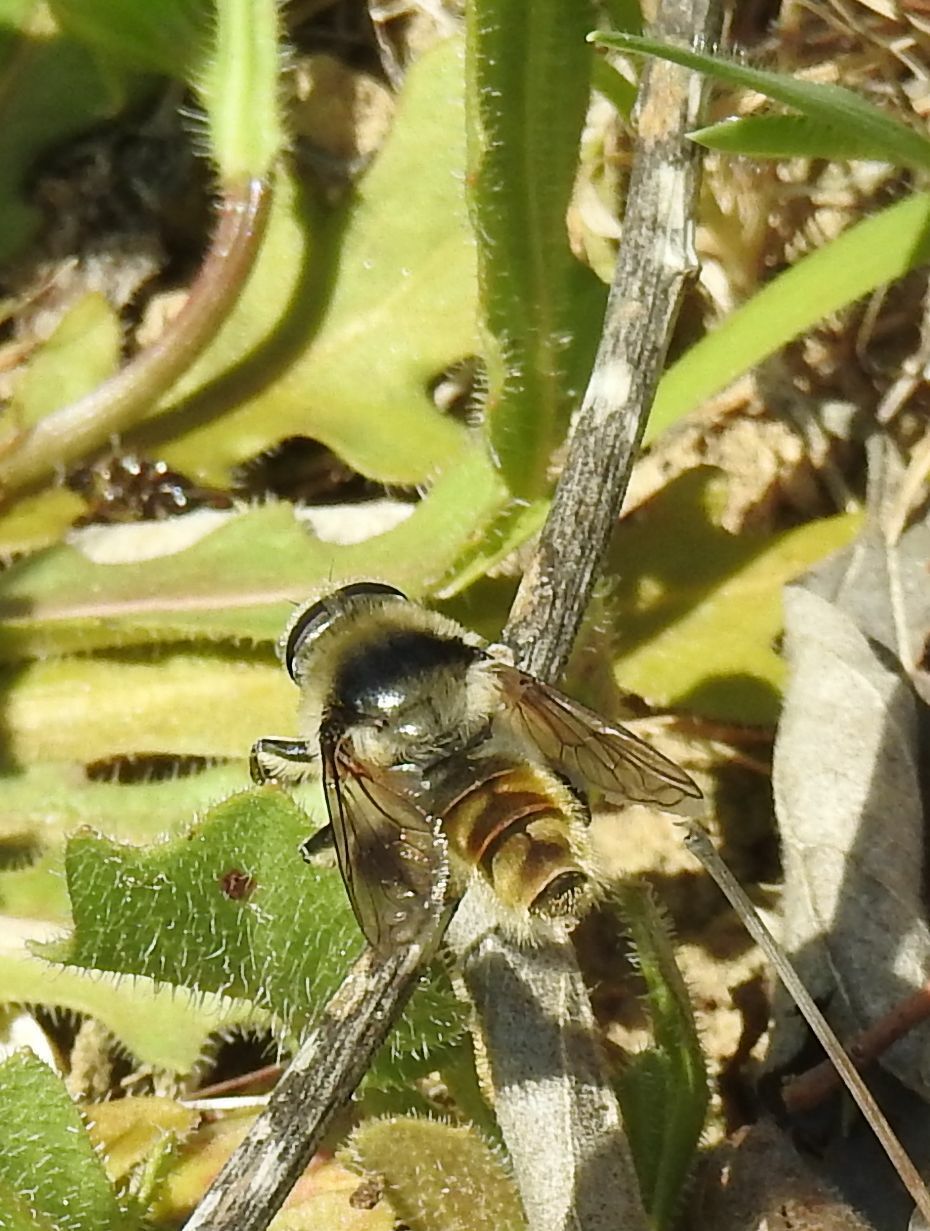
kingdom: Animalia
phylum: Arthropoda
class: Insecta
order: Diptera
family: Syrphidae
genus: Merodon
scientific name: Merodon clavipes
